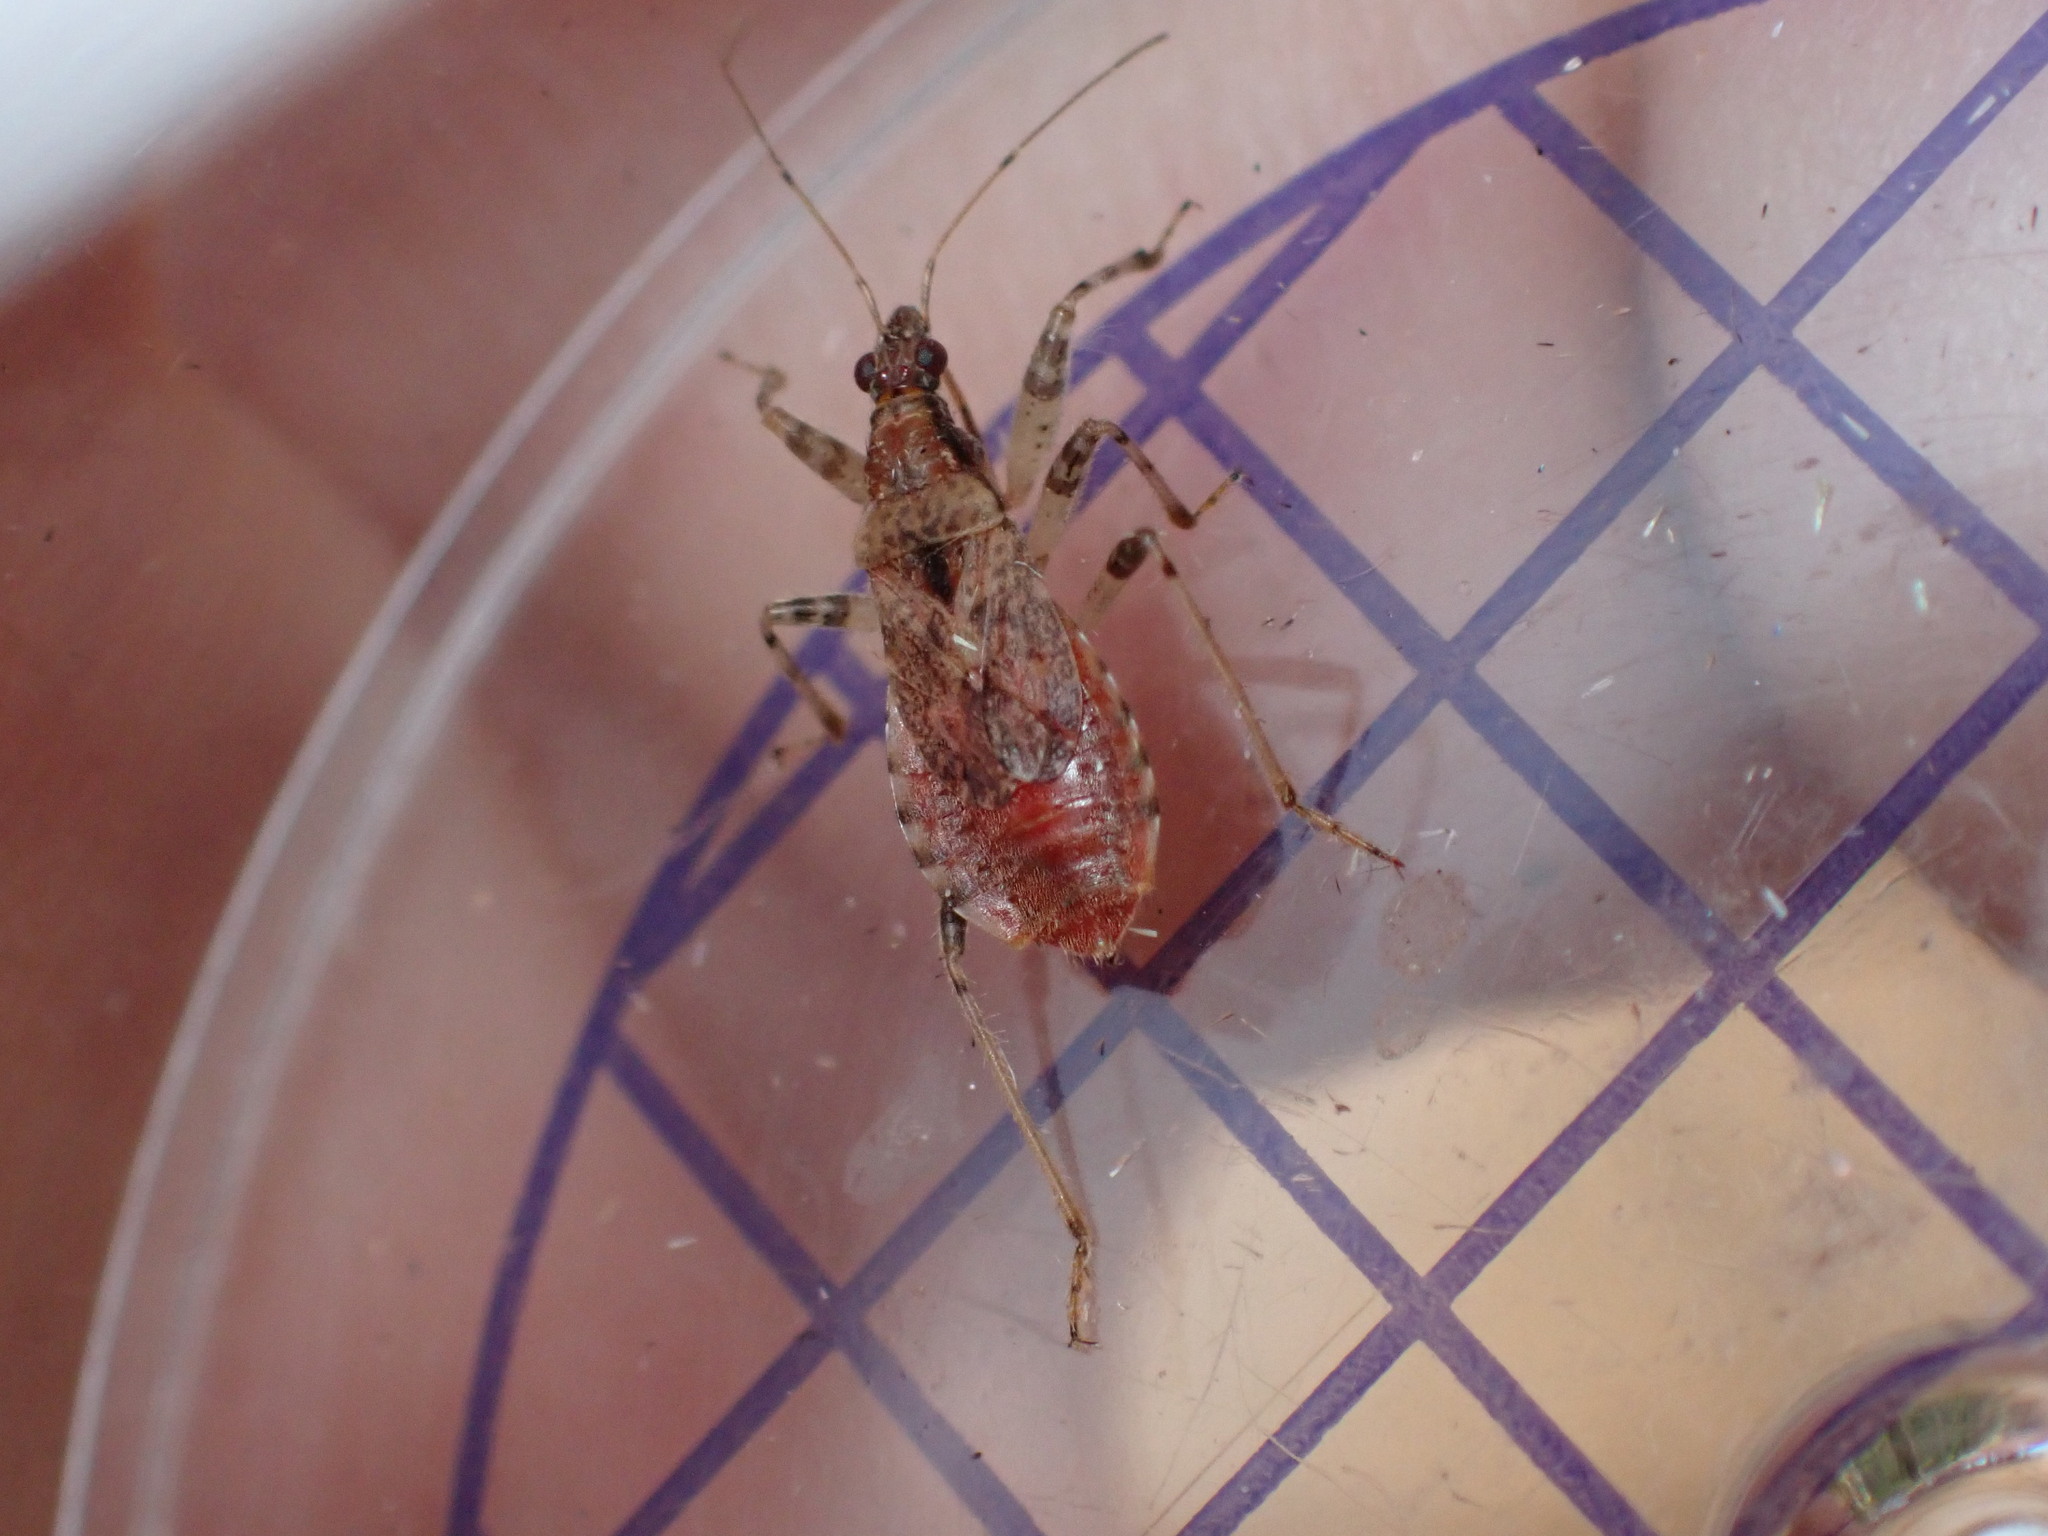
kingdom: Animalia
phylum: Arthropoda
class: Insecta
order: Hemiptera
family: Nabidae
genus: Himacerus
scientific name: Himacerus mirmicoides
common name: Ant damsel bug
